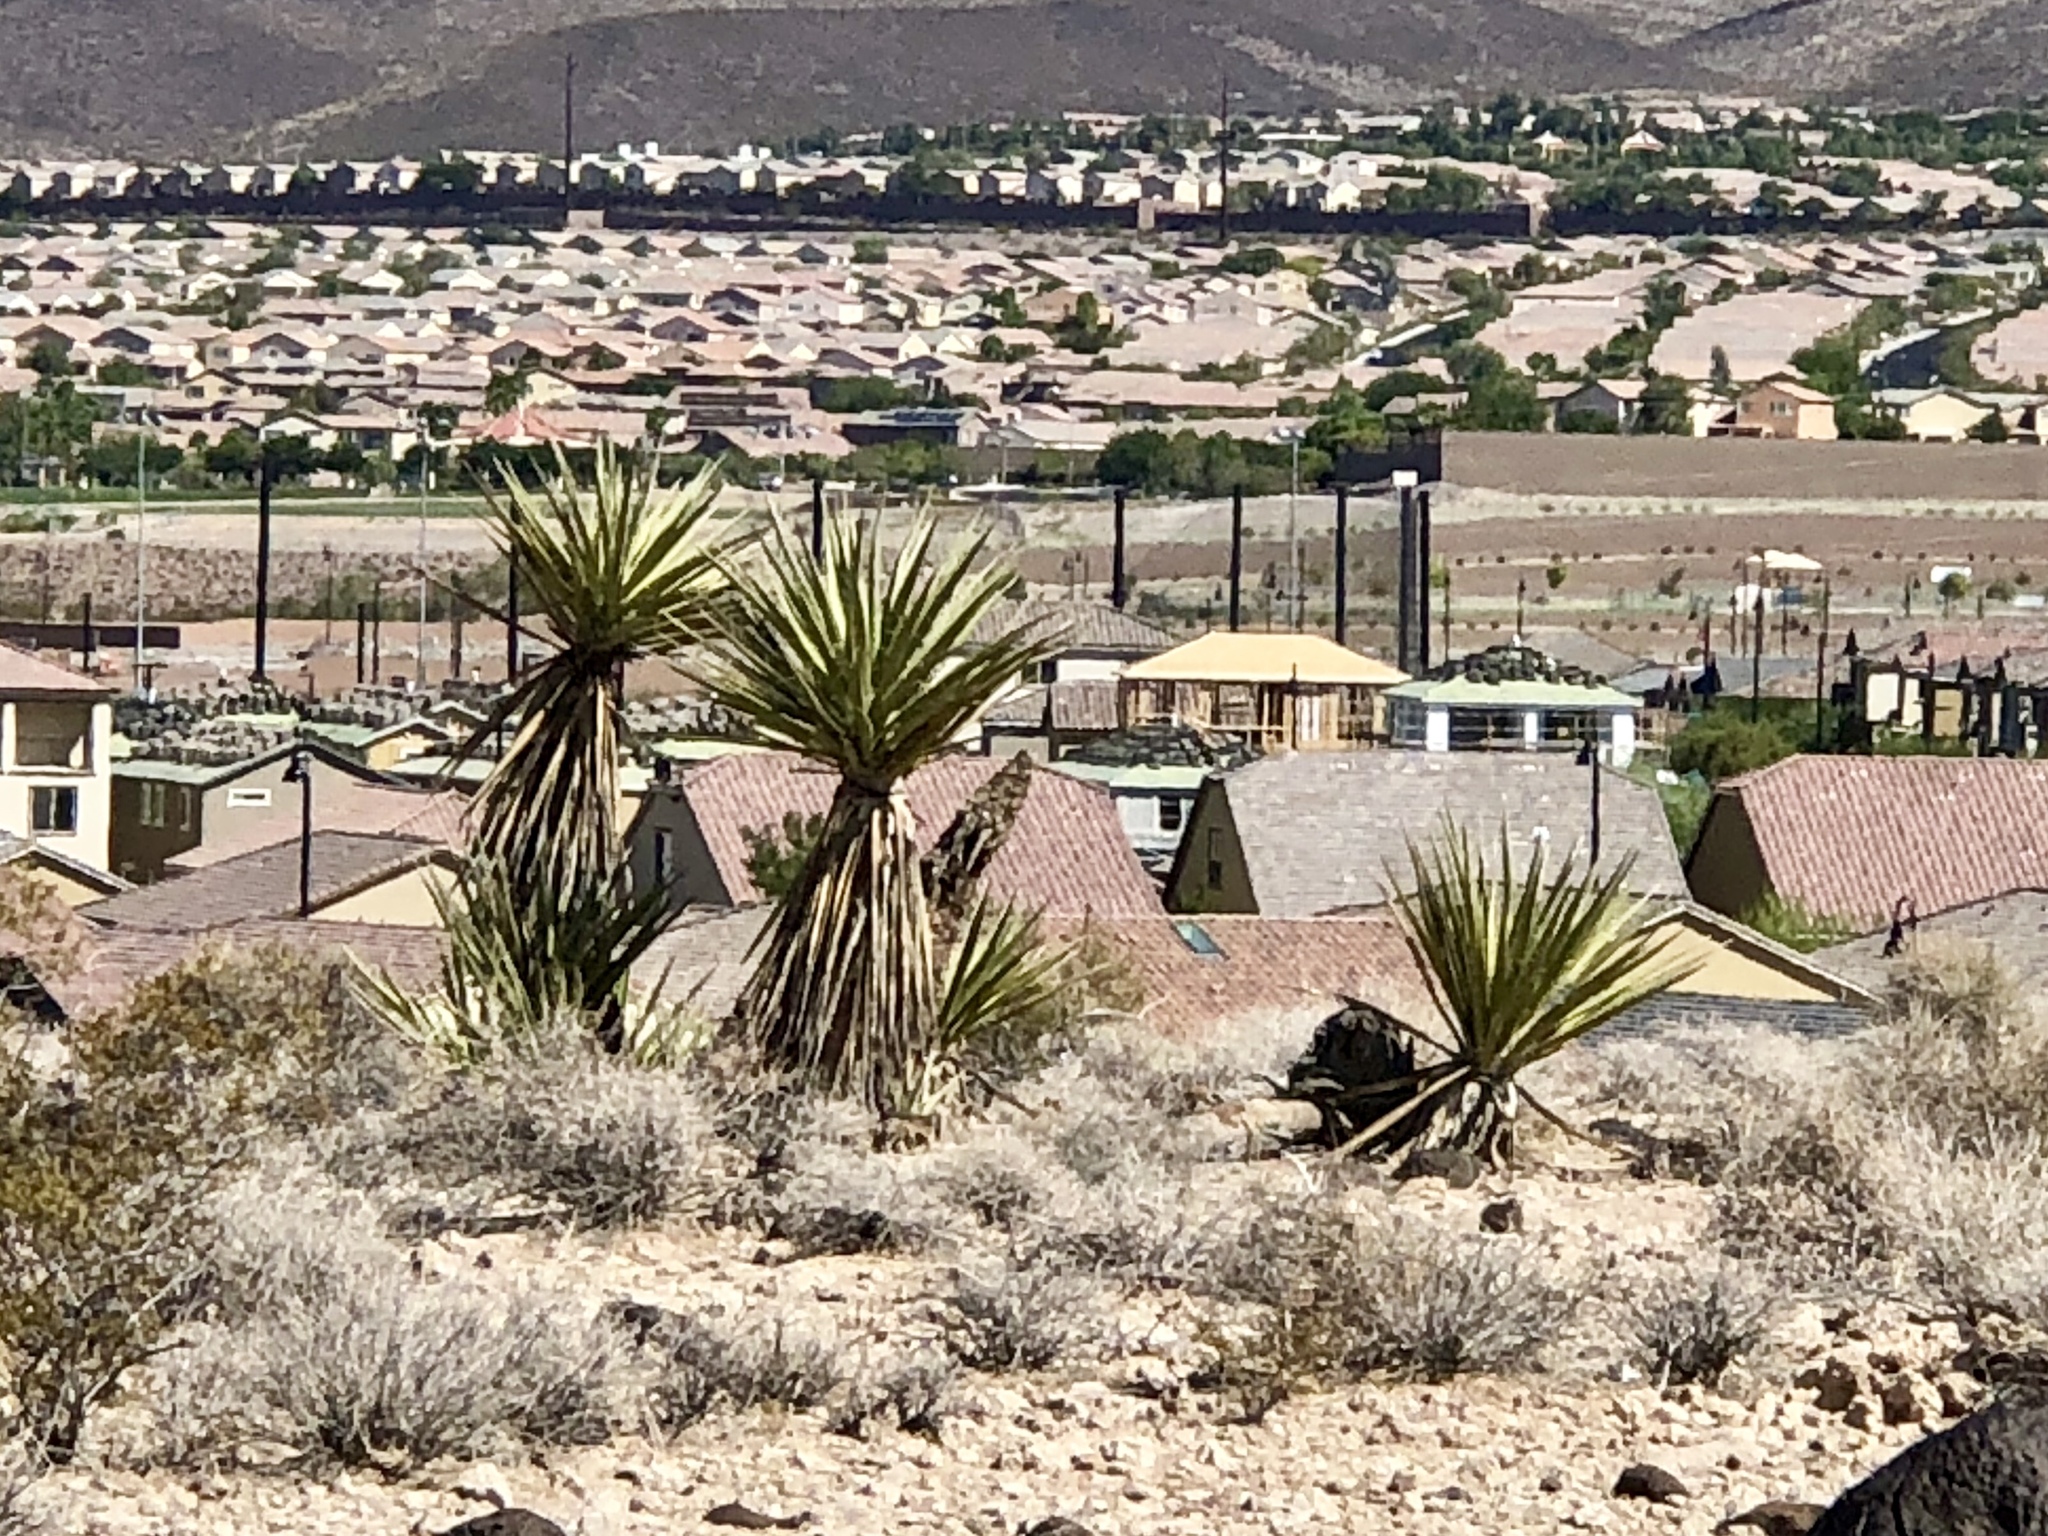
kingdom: Plantae
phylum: Tracheophyta
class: Liliopsida
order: Asparagales
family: Asparagaceae
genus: Yucca
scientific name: Yucca schidigera
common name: Mojave yucca
